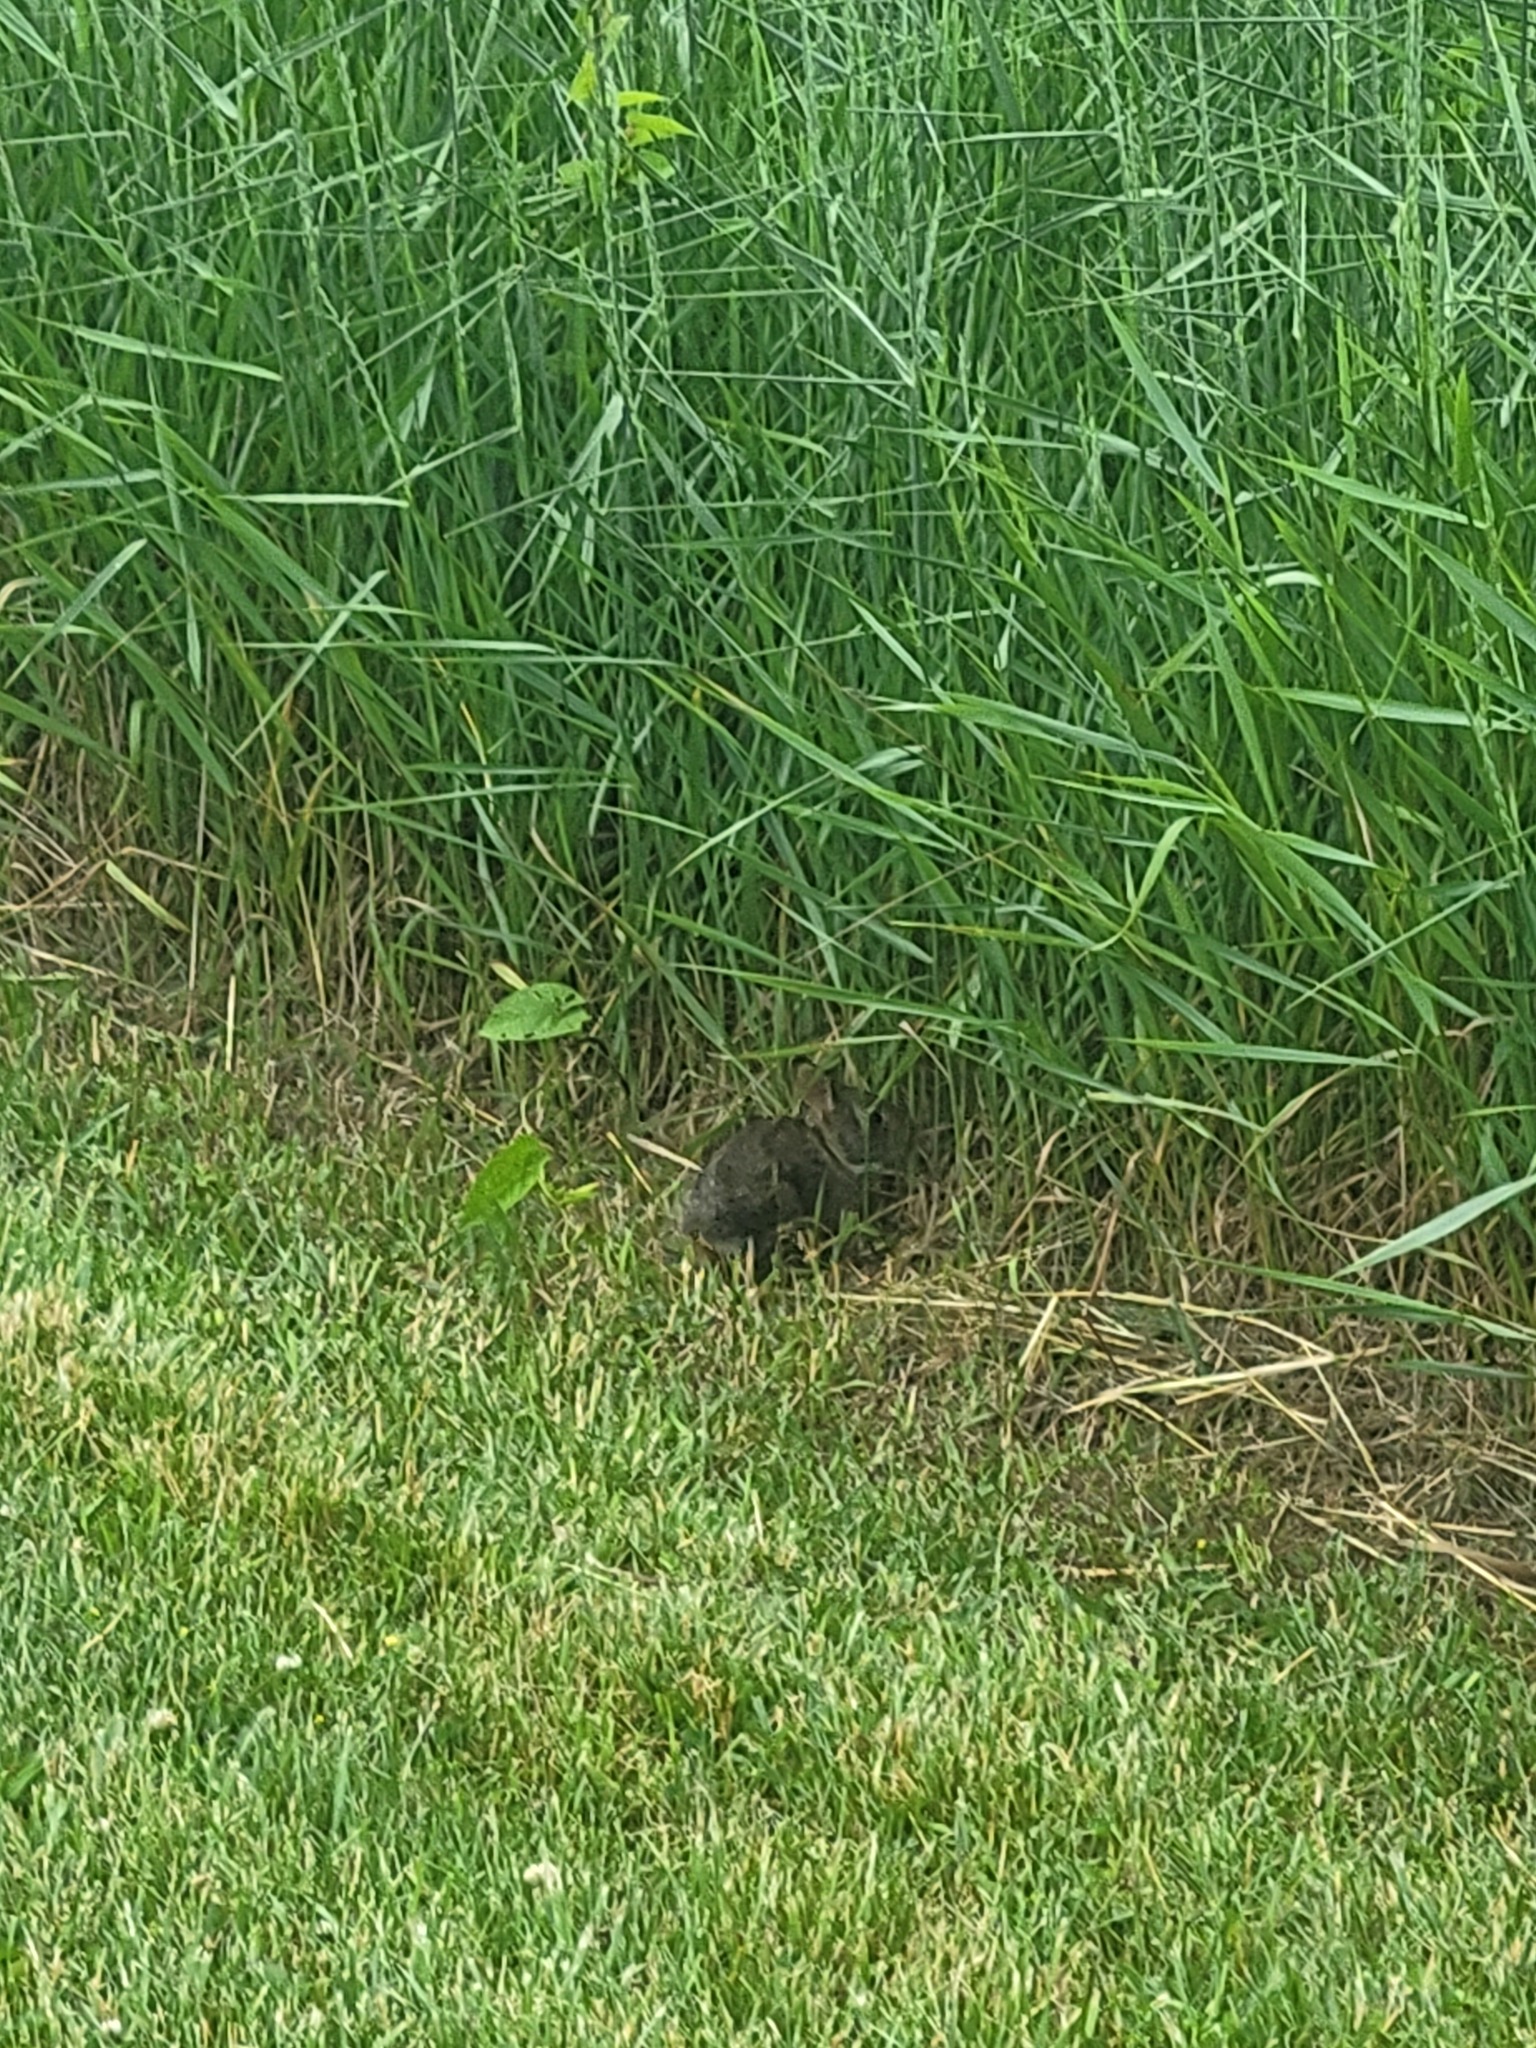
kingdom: Animalia
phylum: Chordata
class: Mammalia
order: Lagomorpha
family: Leporidae
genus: Sylvilagus
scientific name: Sylvilagus floridanus
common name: Eastern cottontail
